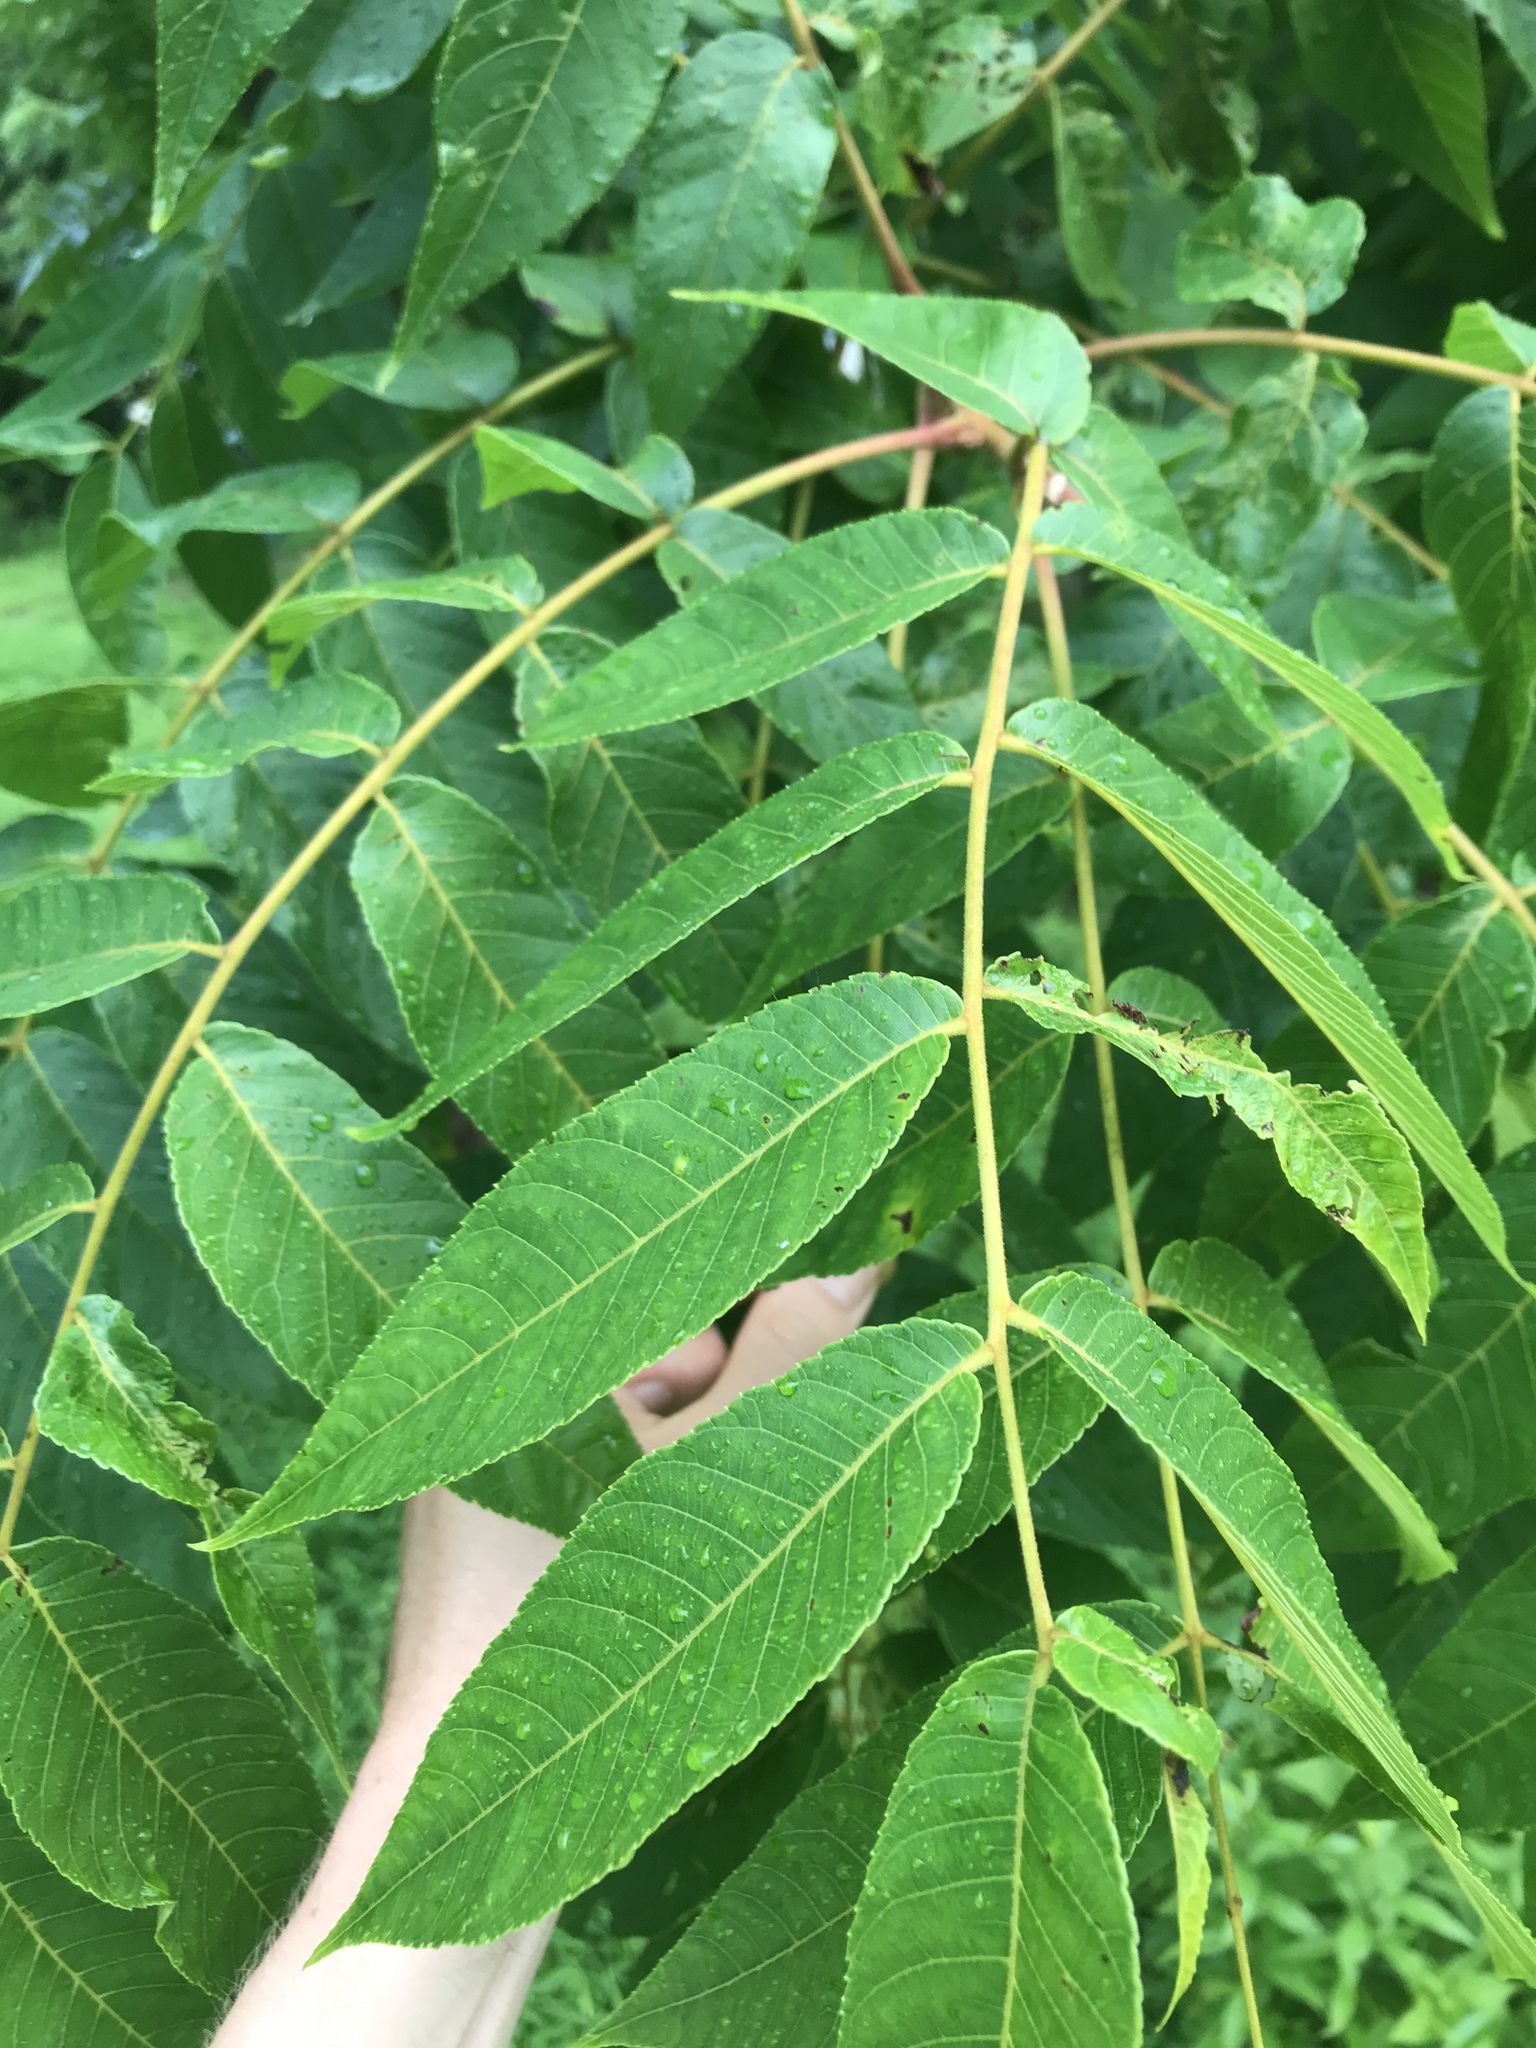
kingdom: Plantae
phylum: Tracheophyta
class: Magnoliopsida
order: Fagales
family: Juglandaceae
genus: Juglans
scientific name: Juglans nigra
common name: Black walnut
